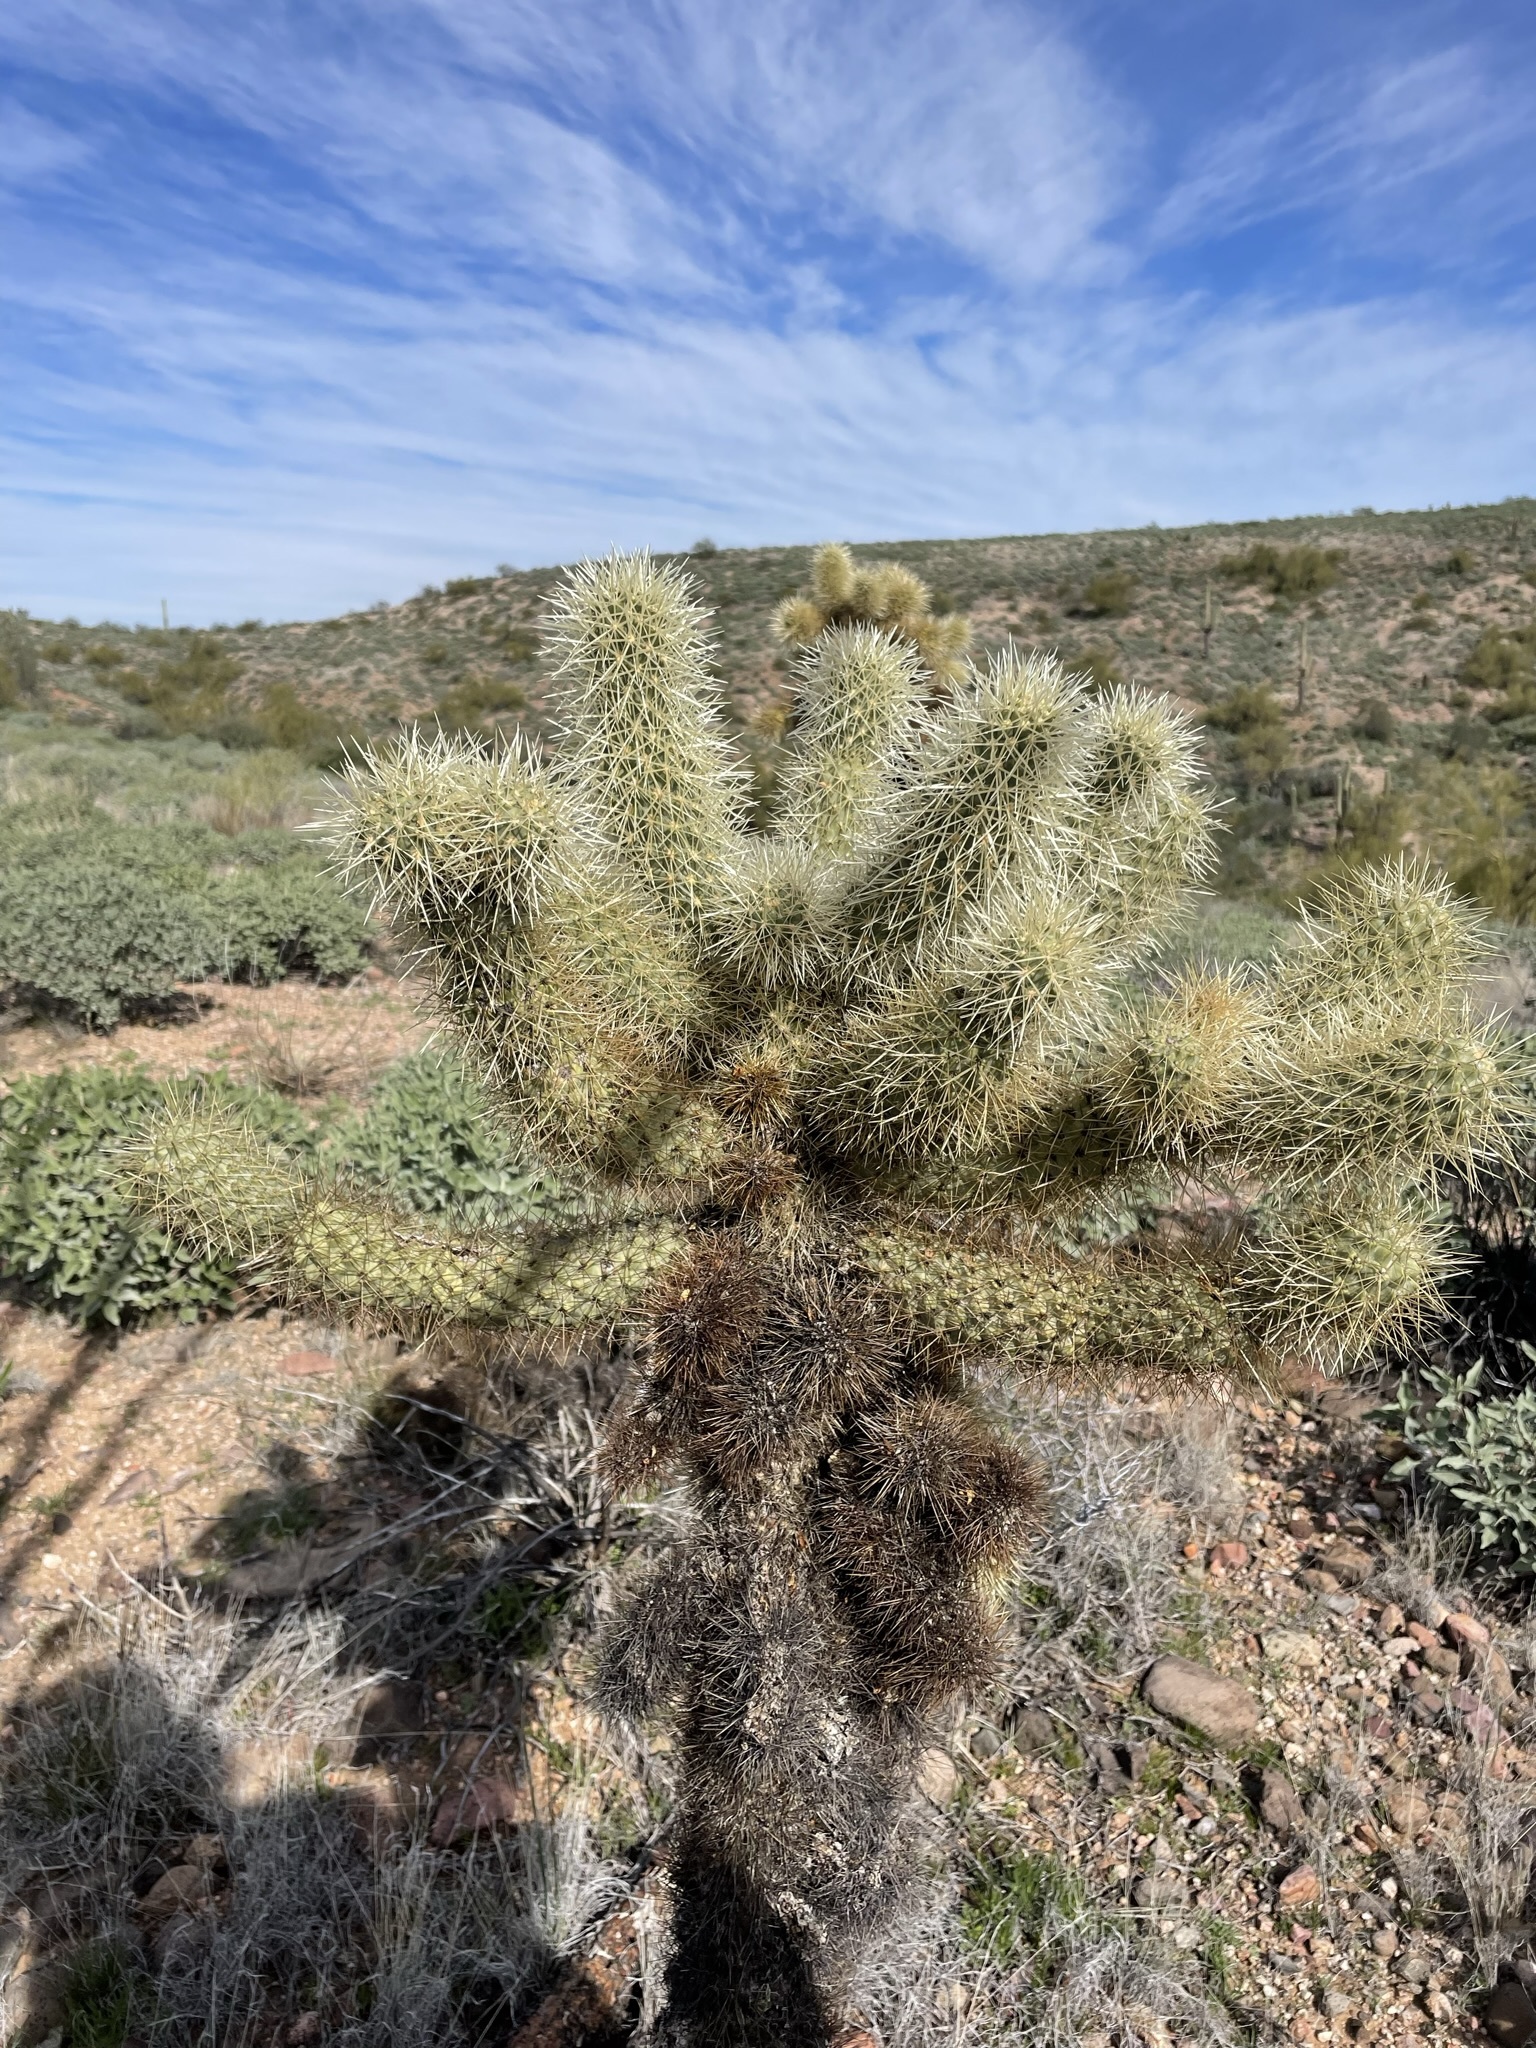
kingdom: Plantae
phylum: Tracheophyta
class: Magnoliopsida
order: Caryophyllales
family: Cactaceae
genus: Cylindropuntia
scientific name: Cylindropuntia fosbergii
